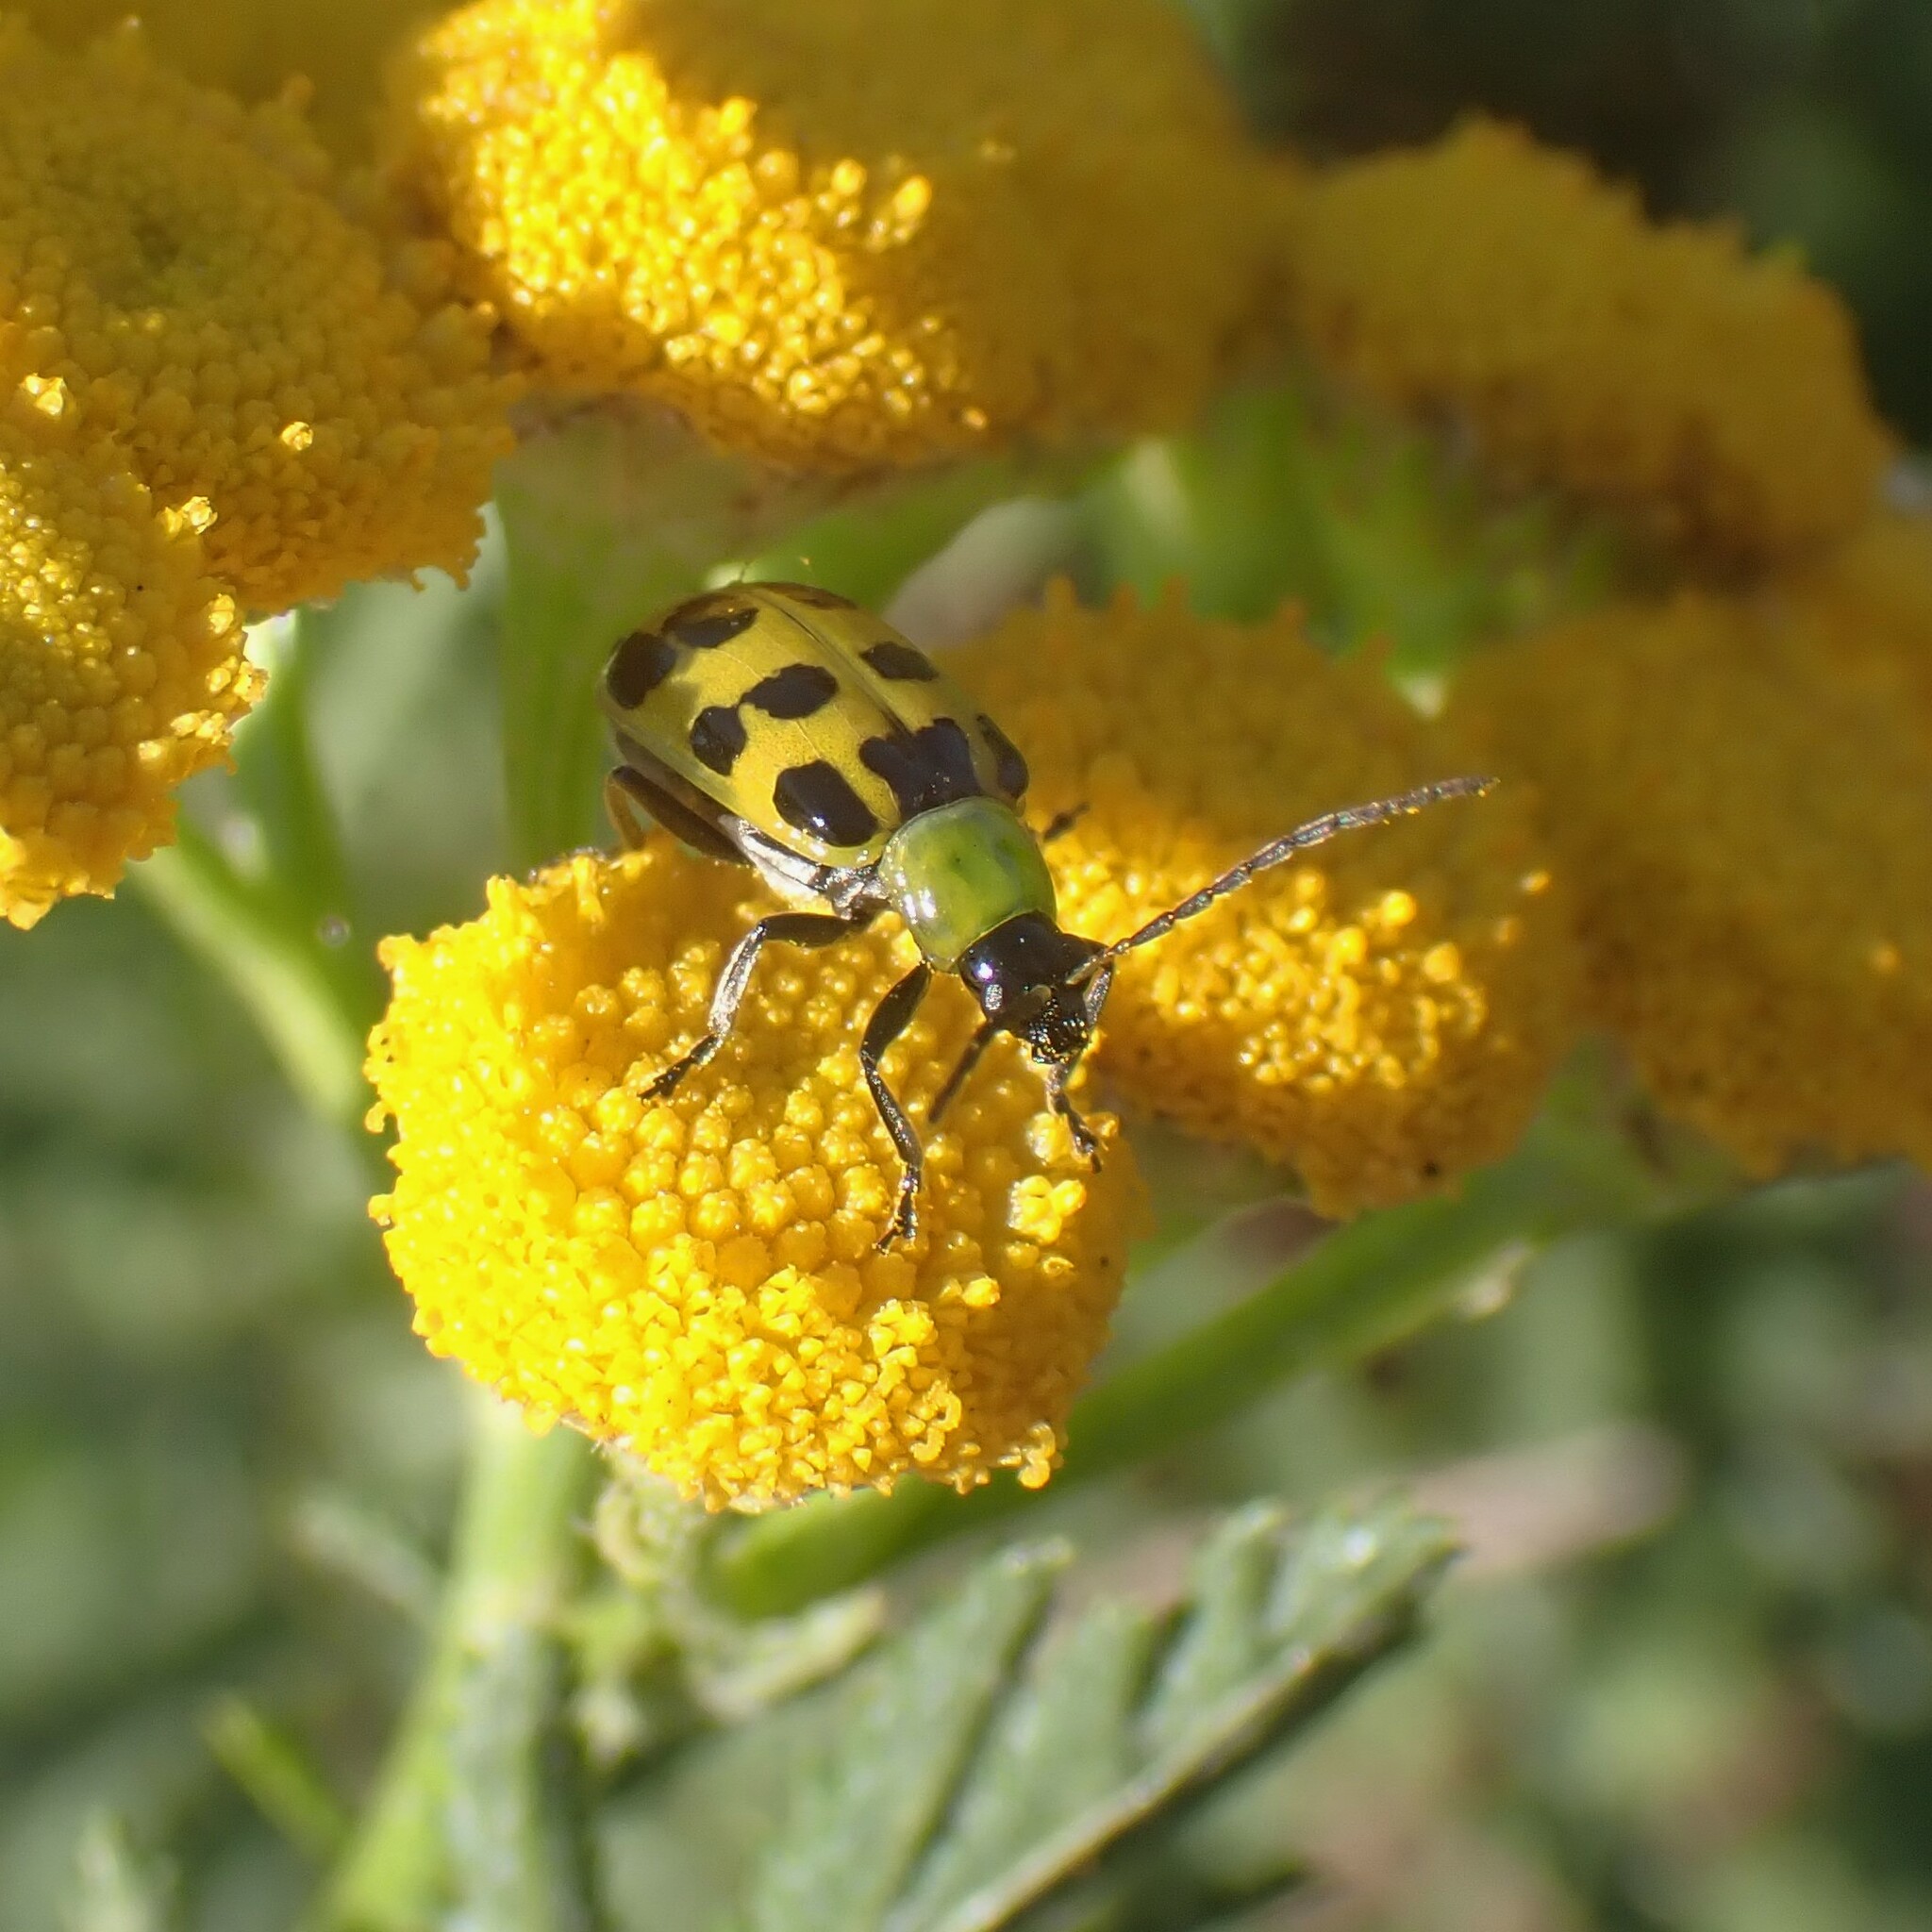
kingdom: Animalia
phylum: Arthropoda
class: Insecta
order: Coleoptera
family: Chrysomelidae
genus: Diabrotica
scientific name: Diabrotica undecimpunctata
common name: Spotted cucumber beetle
